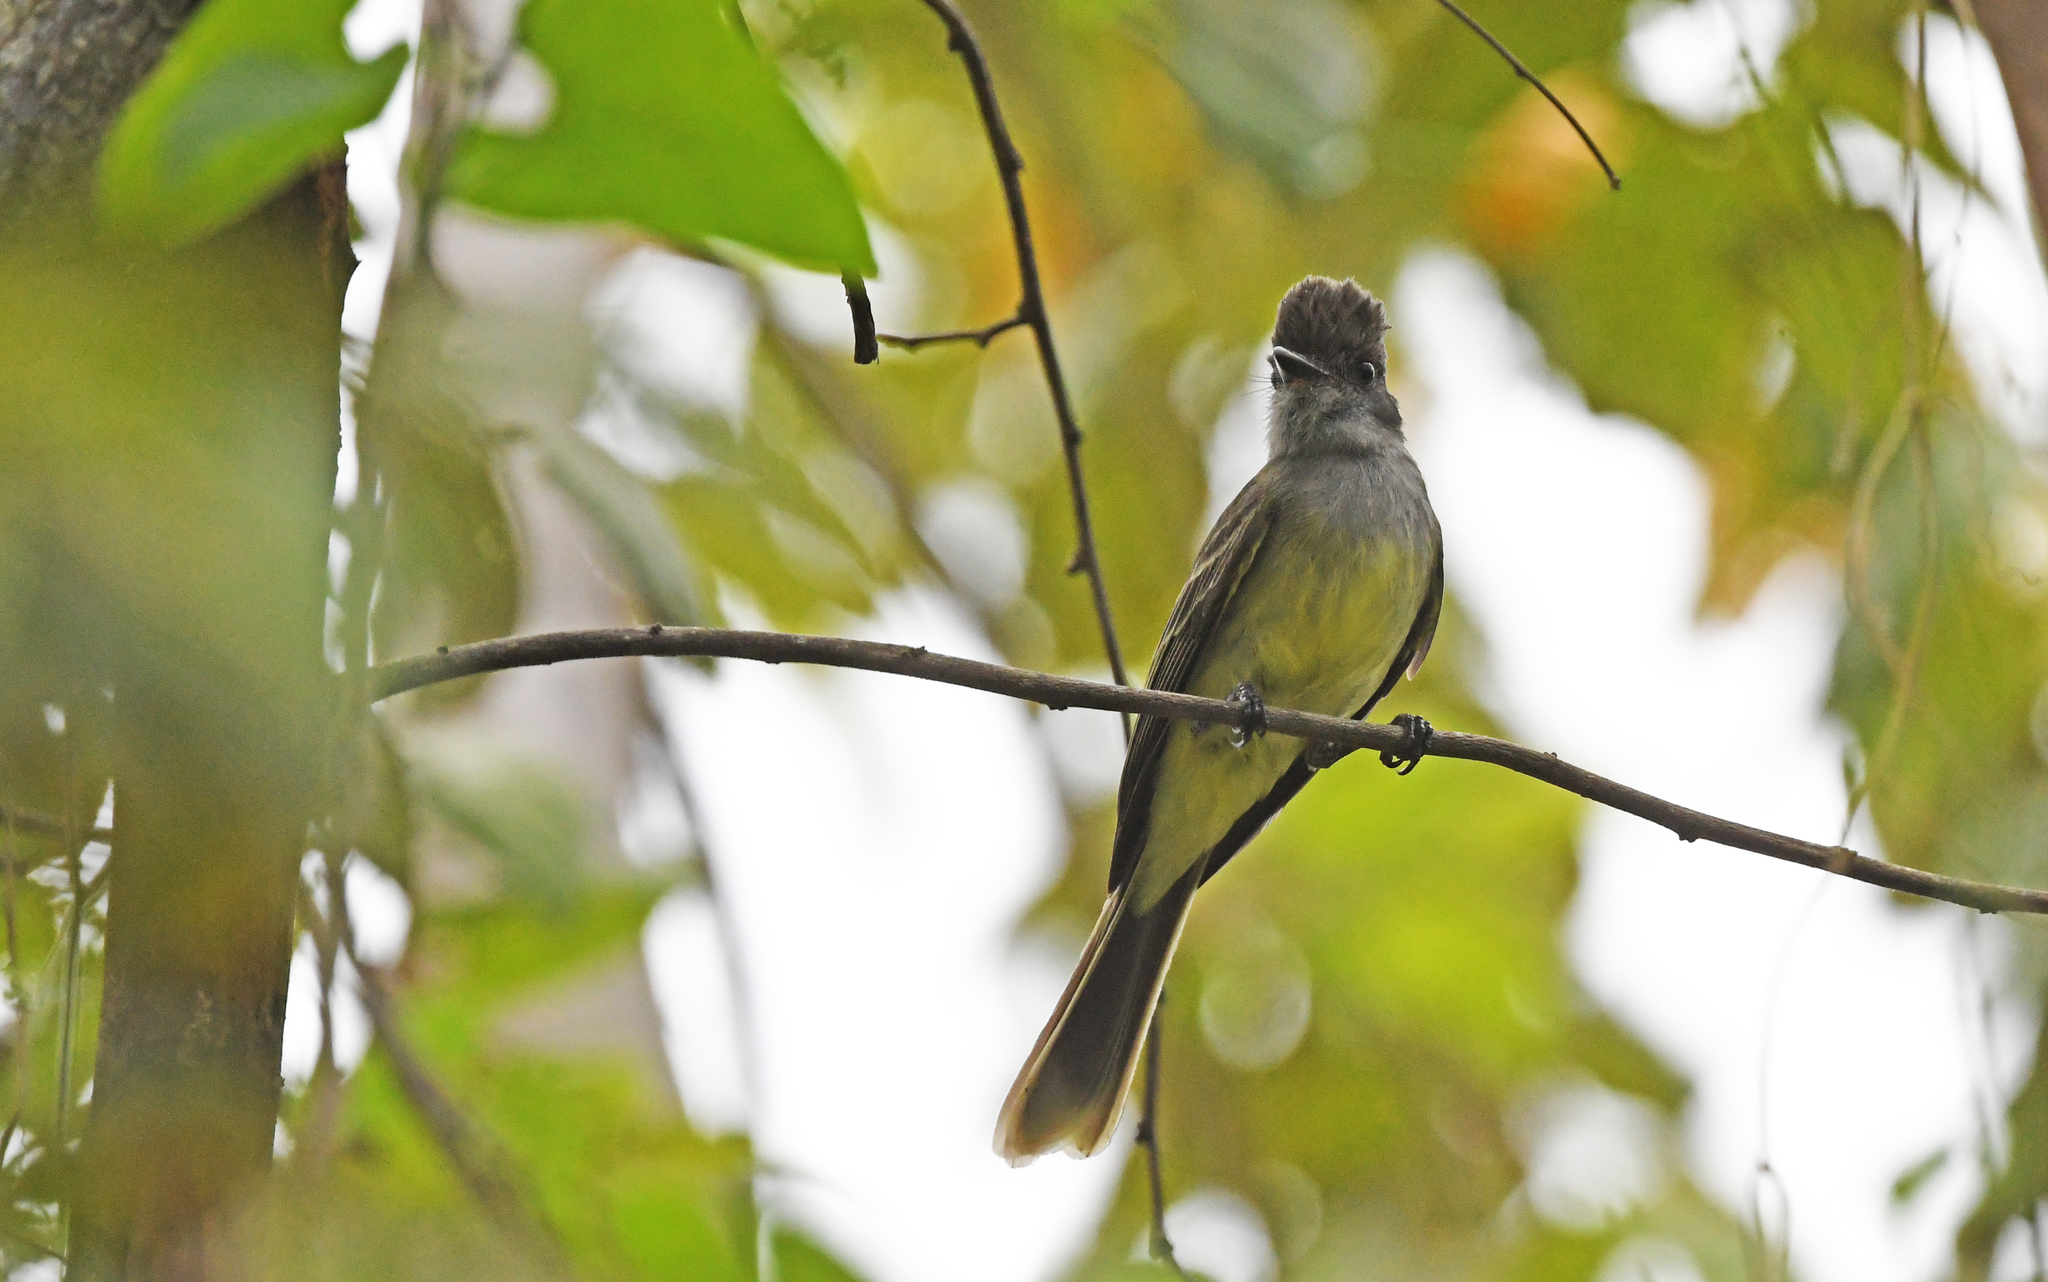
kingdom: Animalia
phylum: Chordata
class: Aves
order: Passeriformes
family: Tyrannidae
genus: Myiarchus
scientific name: Myiarchus apicalis
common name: Apical flycatcher
